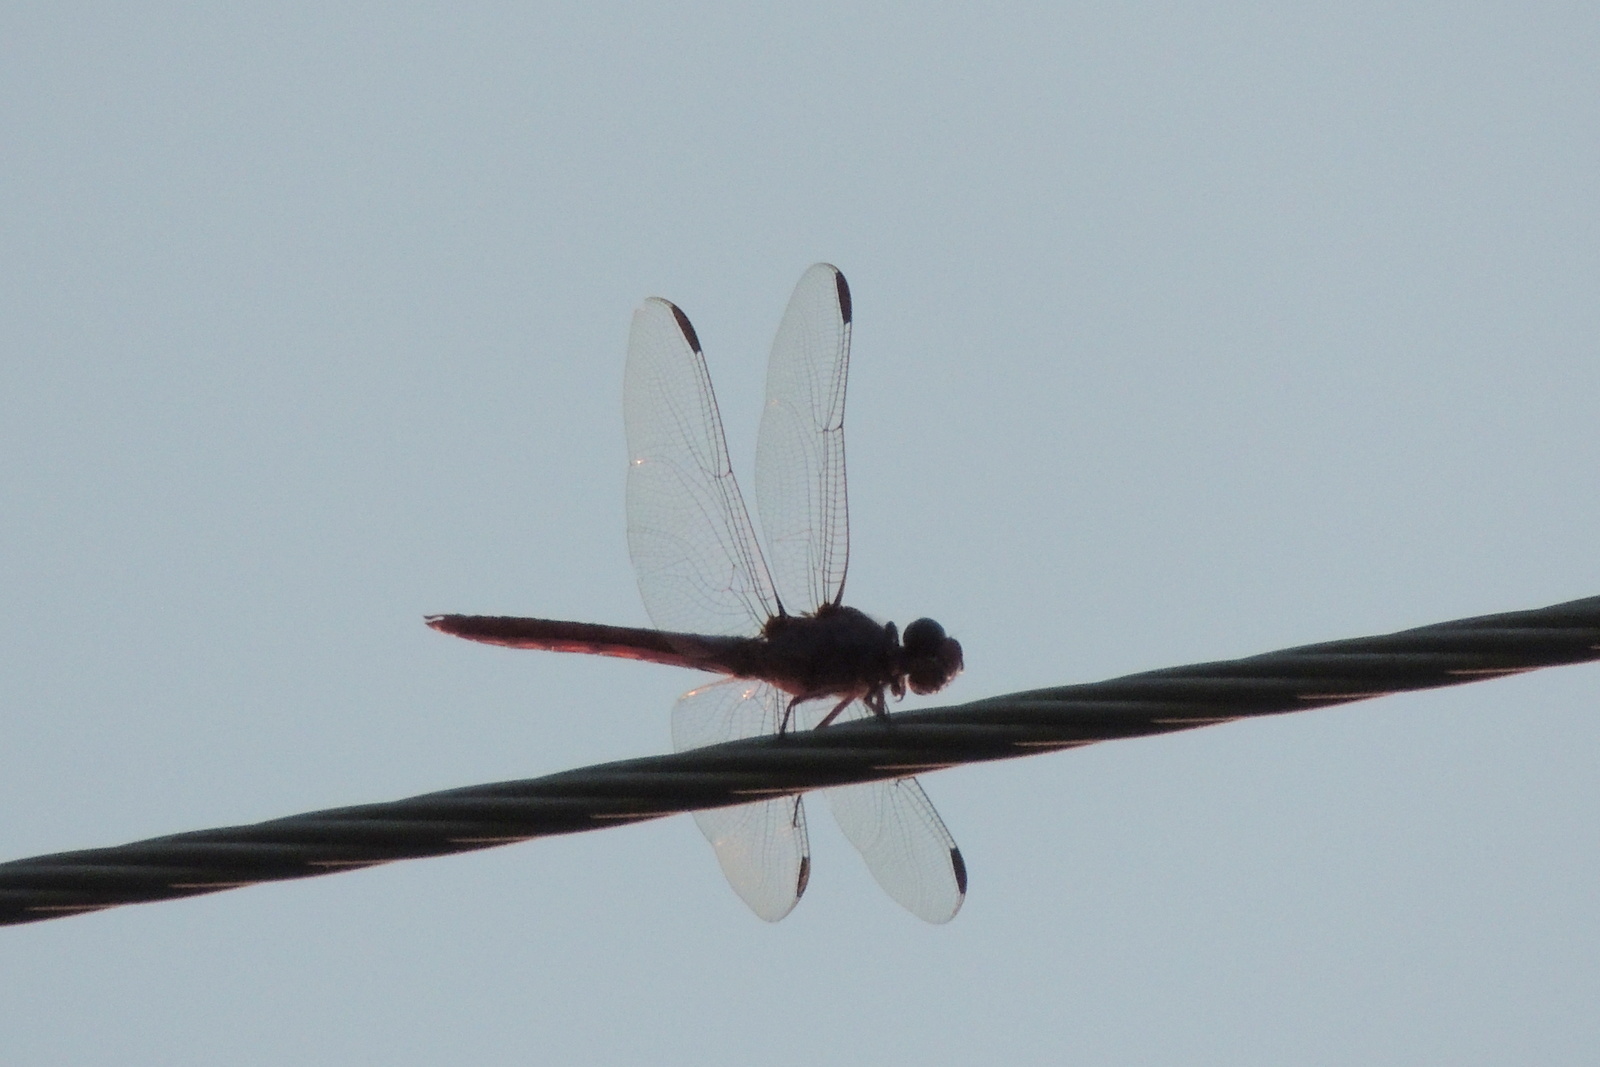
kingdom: Animalia
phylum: Arthropoda
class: Insecta
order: Odonata
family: Libellulidae
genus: Orthemis
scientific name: Orthemis ferruginea
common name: Roseate skimmer
